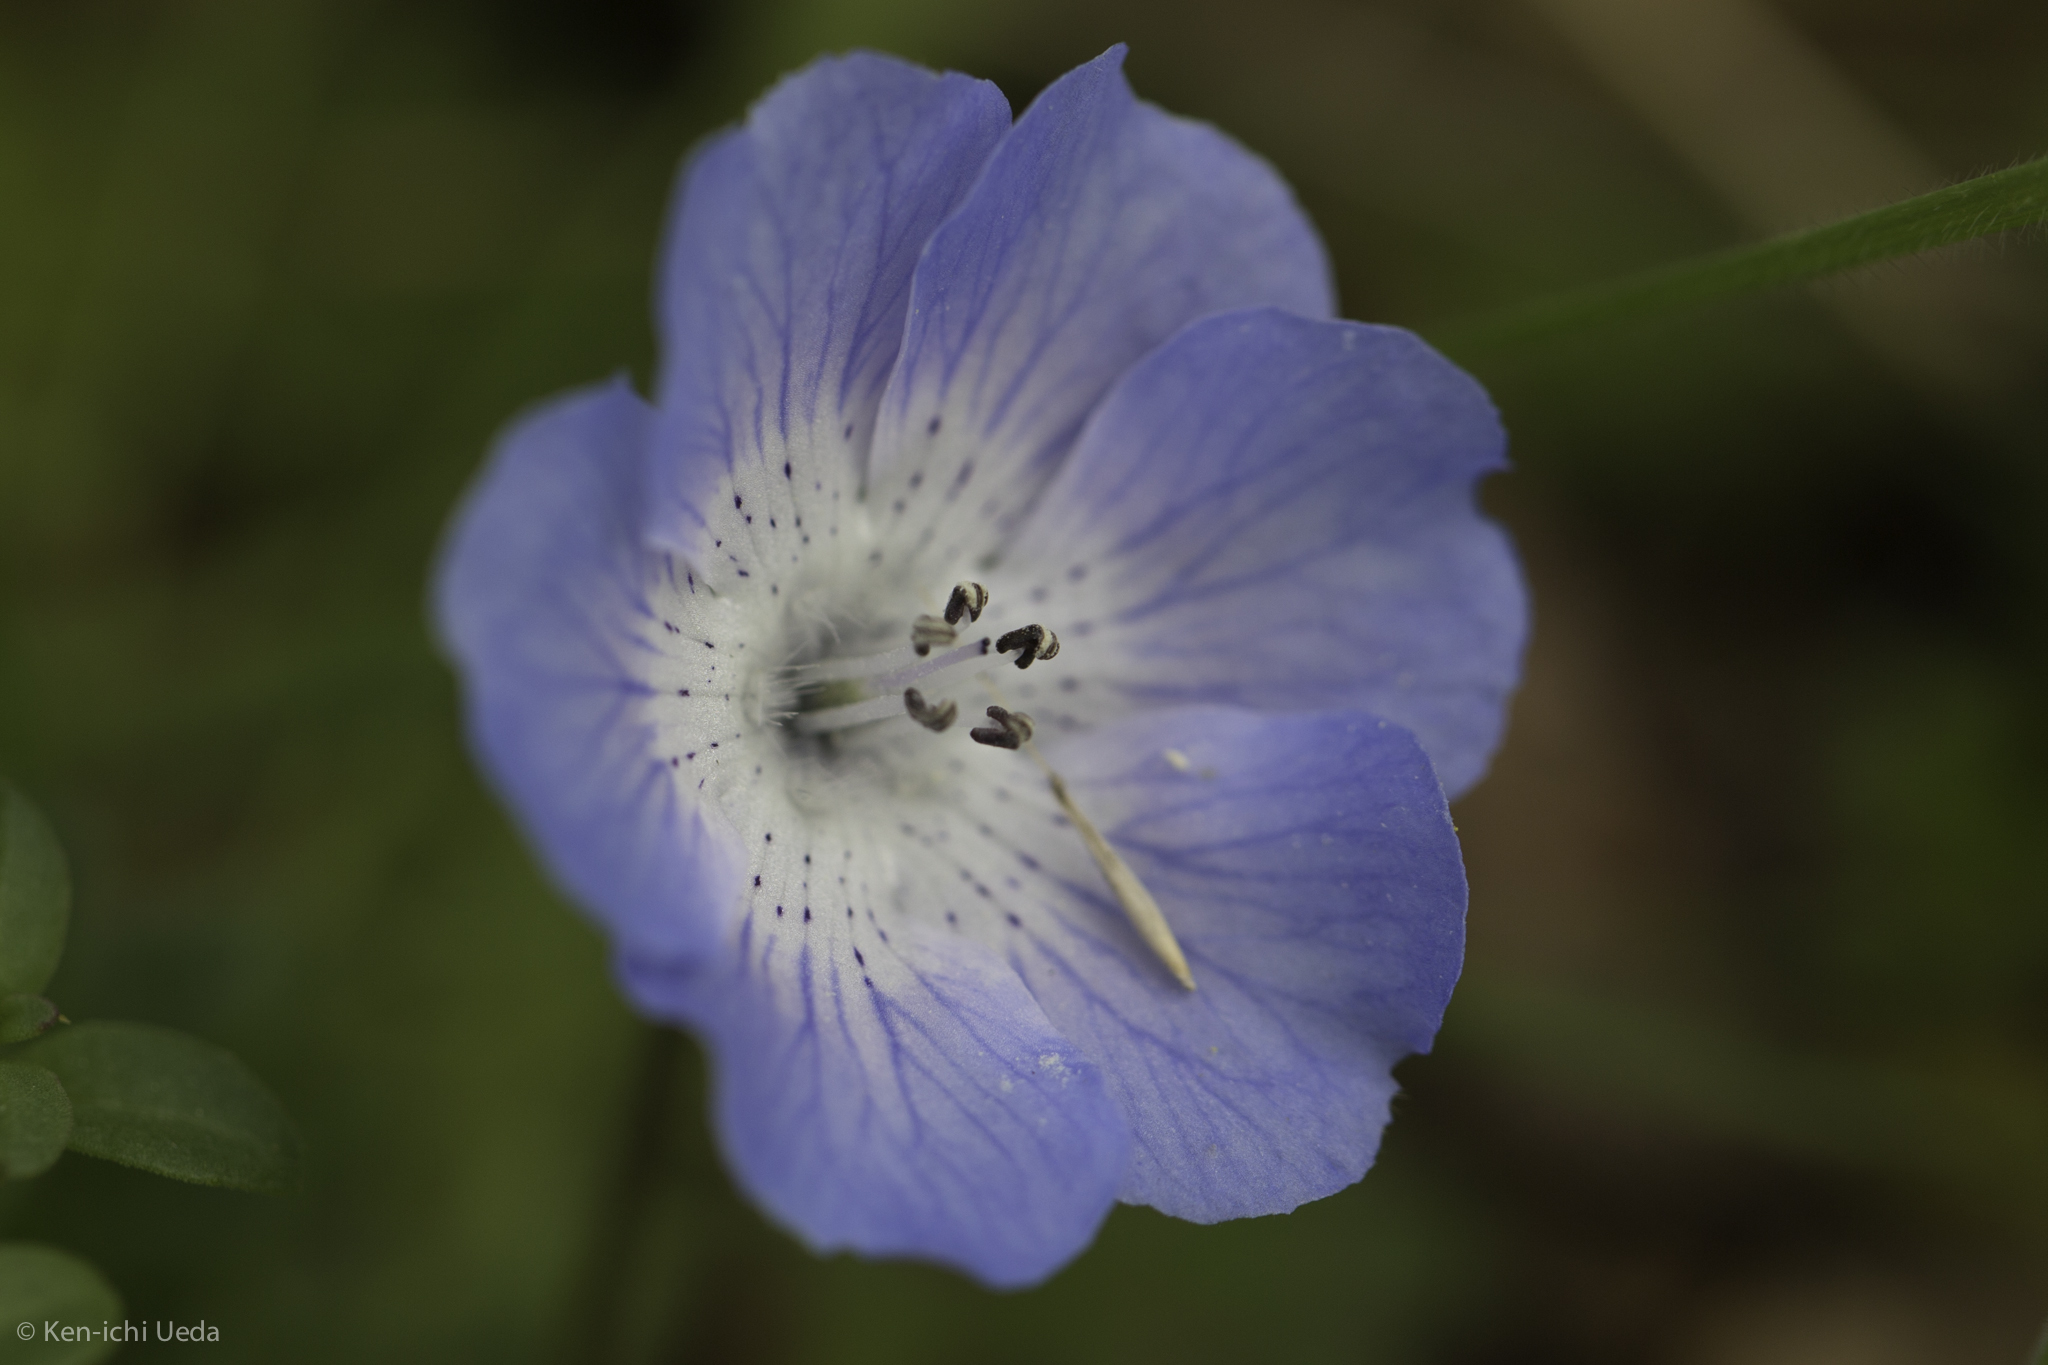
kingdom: Plantae
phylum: Tracheophyta
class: Magnoliopsida
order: Boraginales
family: Hydrophyllaceae
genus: Nemophila
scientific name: Nemophila menziesii
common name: Baby's-blue-eyes
